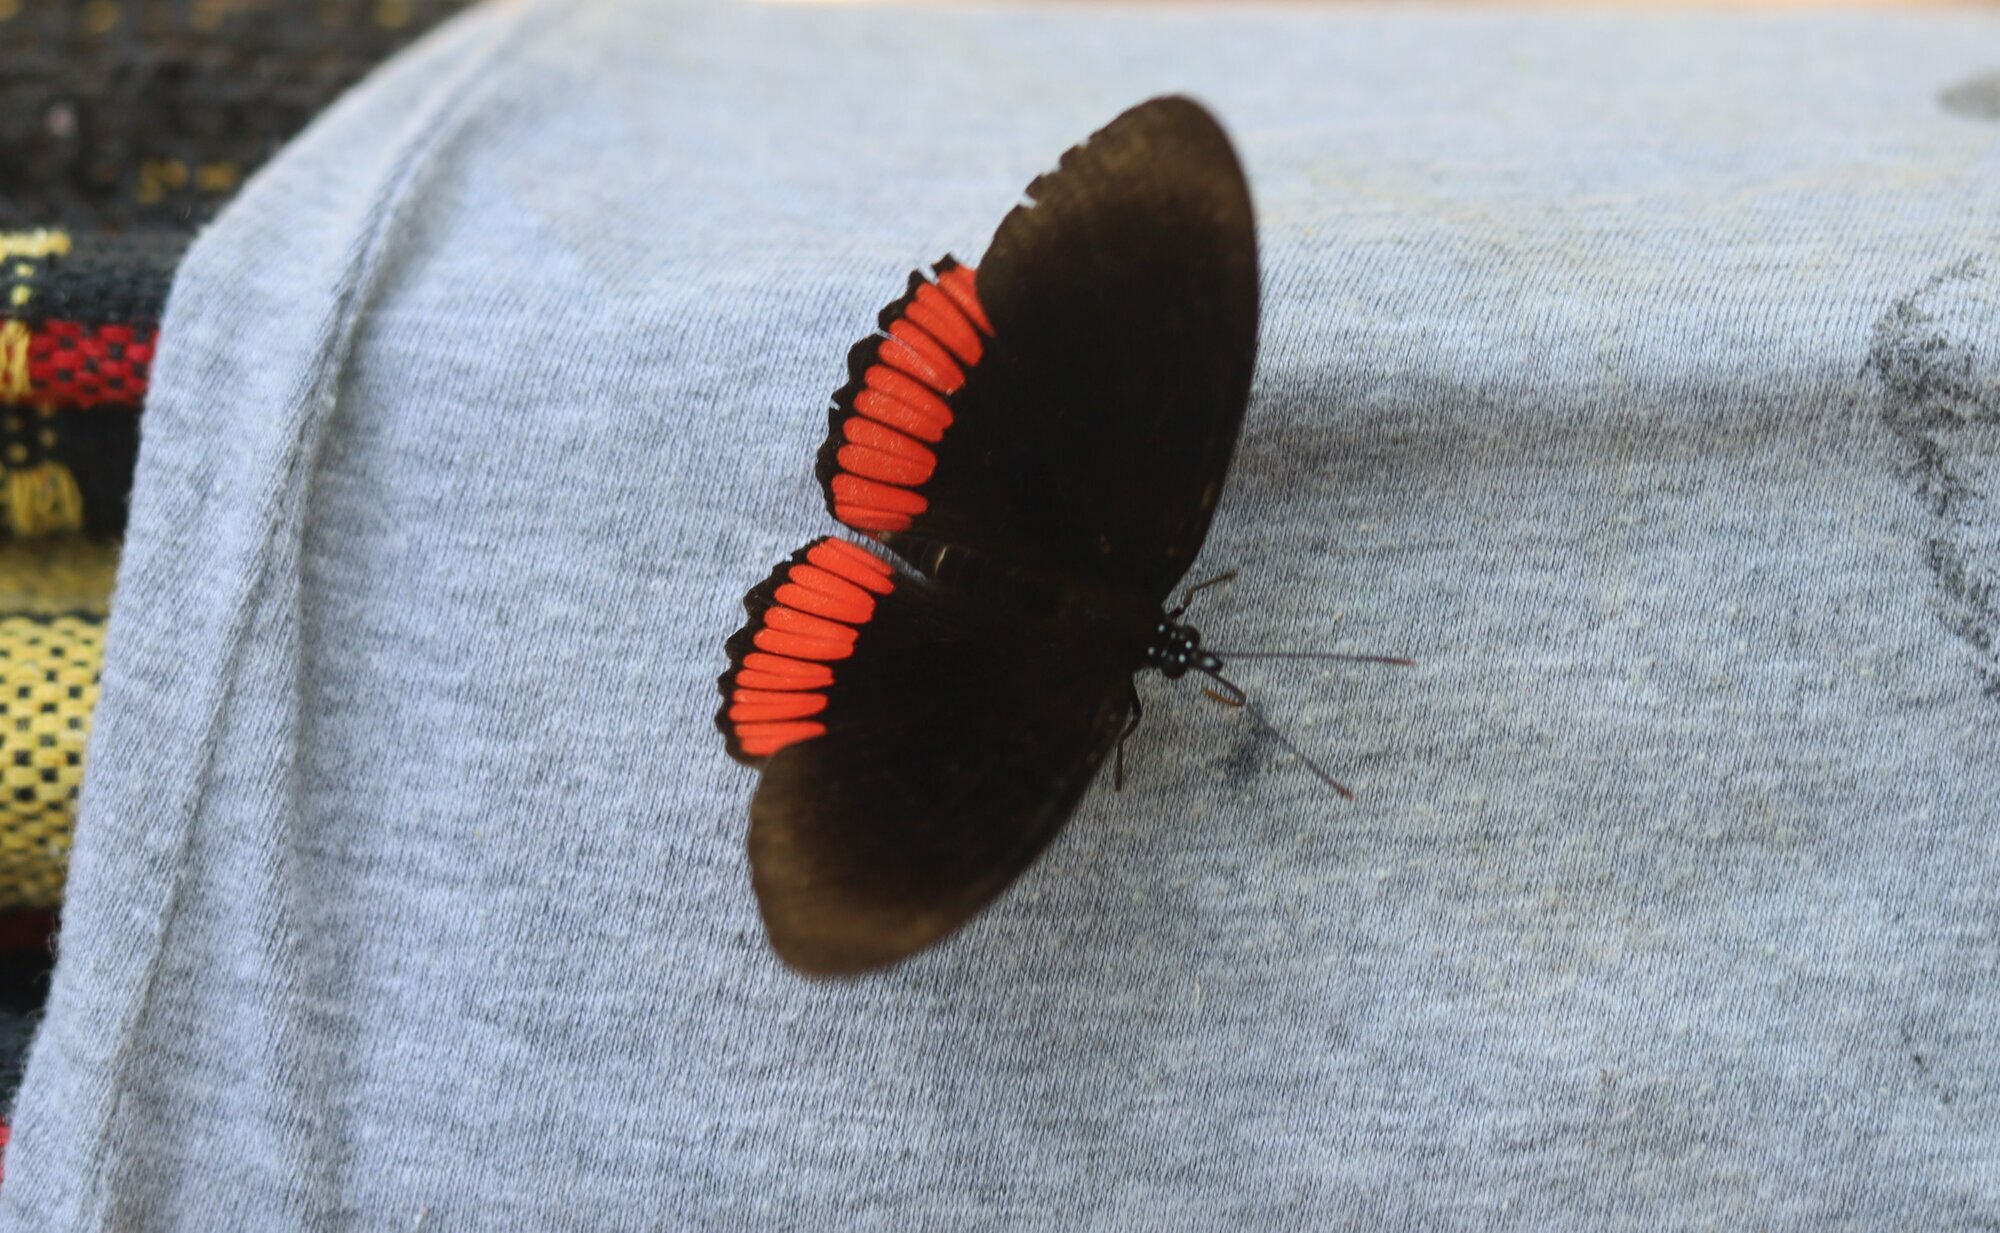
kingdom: Animalia
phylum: Arthropoda
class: Insecta
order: Lepidoptera
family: Sesiidae
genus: Sesia
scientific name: Sesia Biblis hyperia
